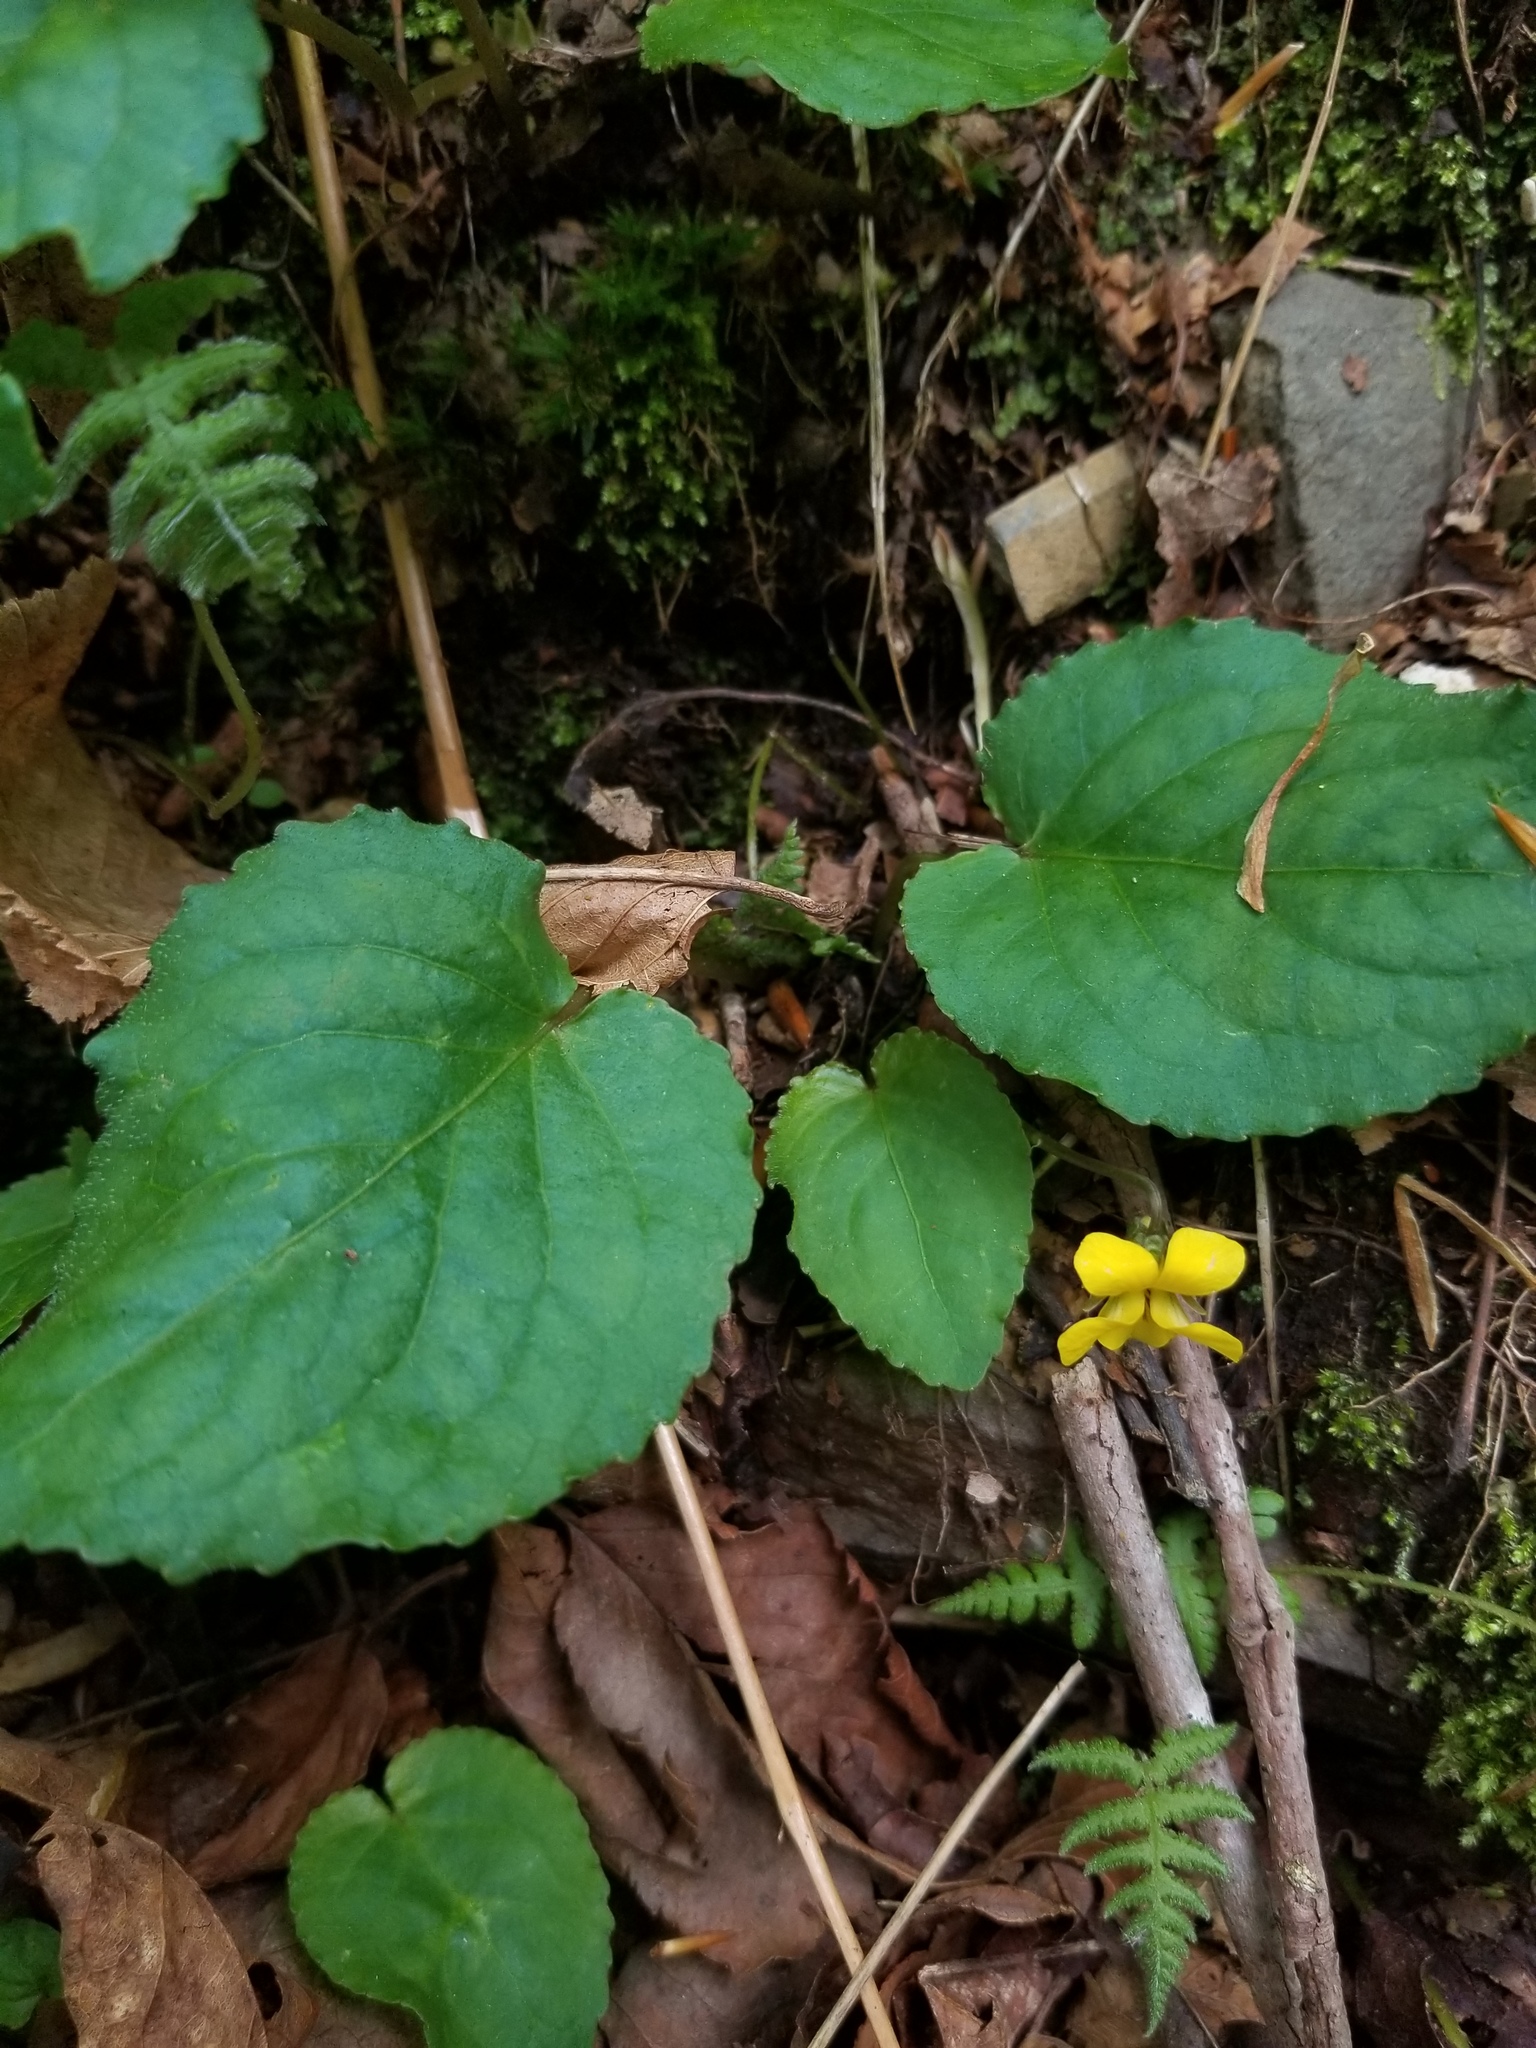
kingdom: Plantae
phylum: Tracheophyta
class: Magnoliopsida
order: Malpighiales
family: Violaceae
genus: Viola
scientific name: Viola rotundifolia
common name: Early yellow violet
